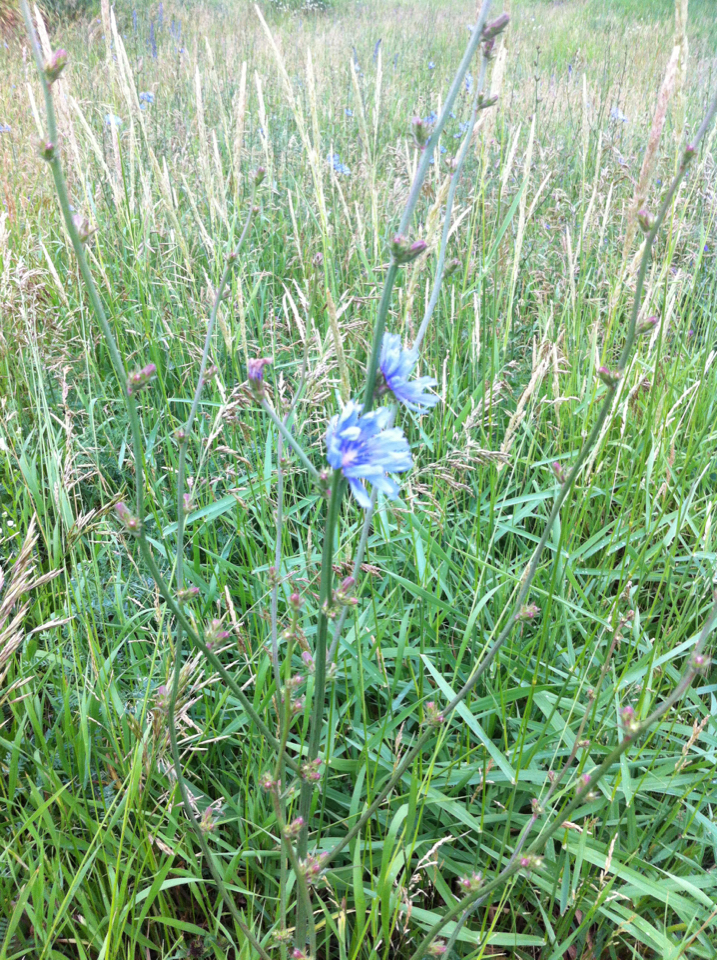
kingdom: Plantae
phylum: Tracheophyta
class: Magnoliopsida
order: Asterales
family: Asteraceae
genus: Cichorium
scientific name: Cichorium intybus
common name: Chicory
